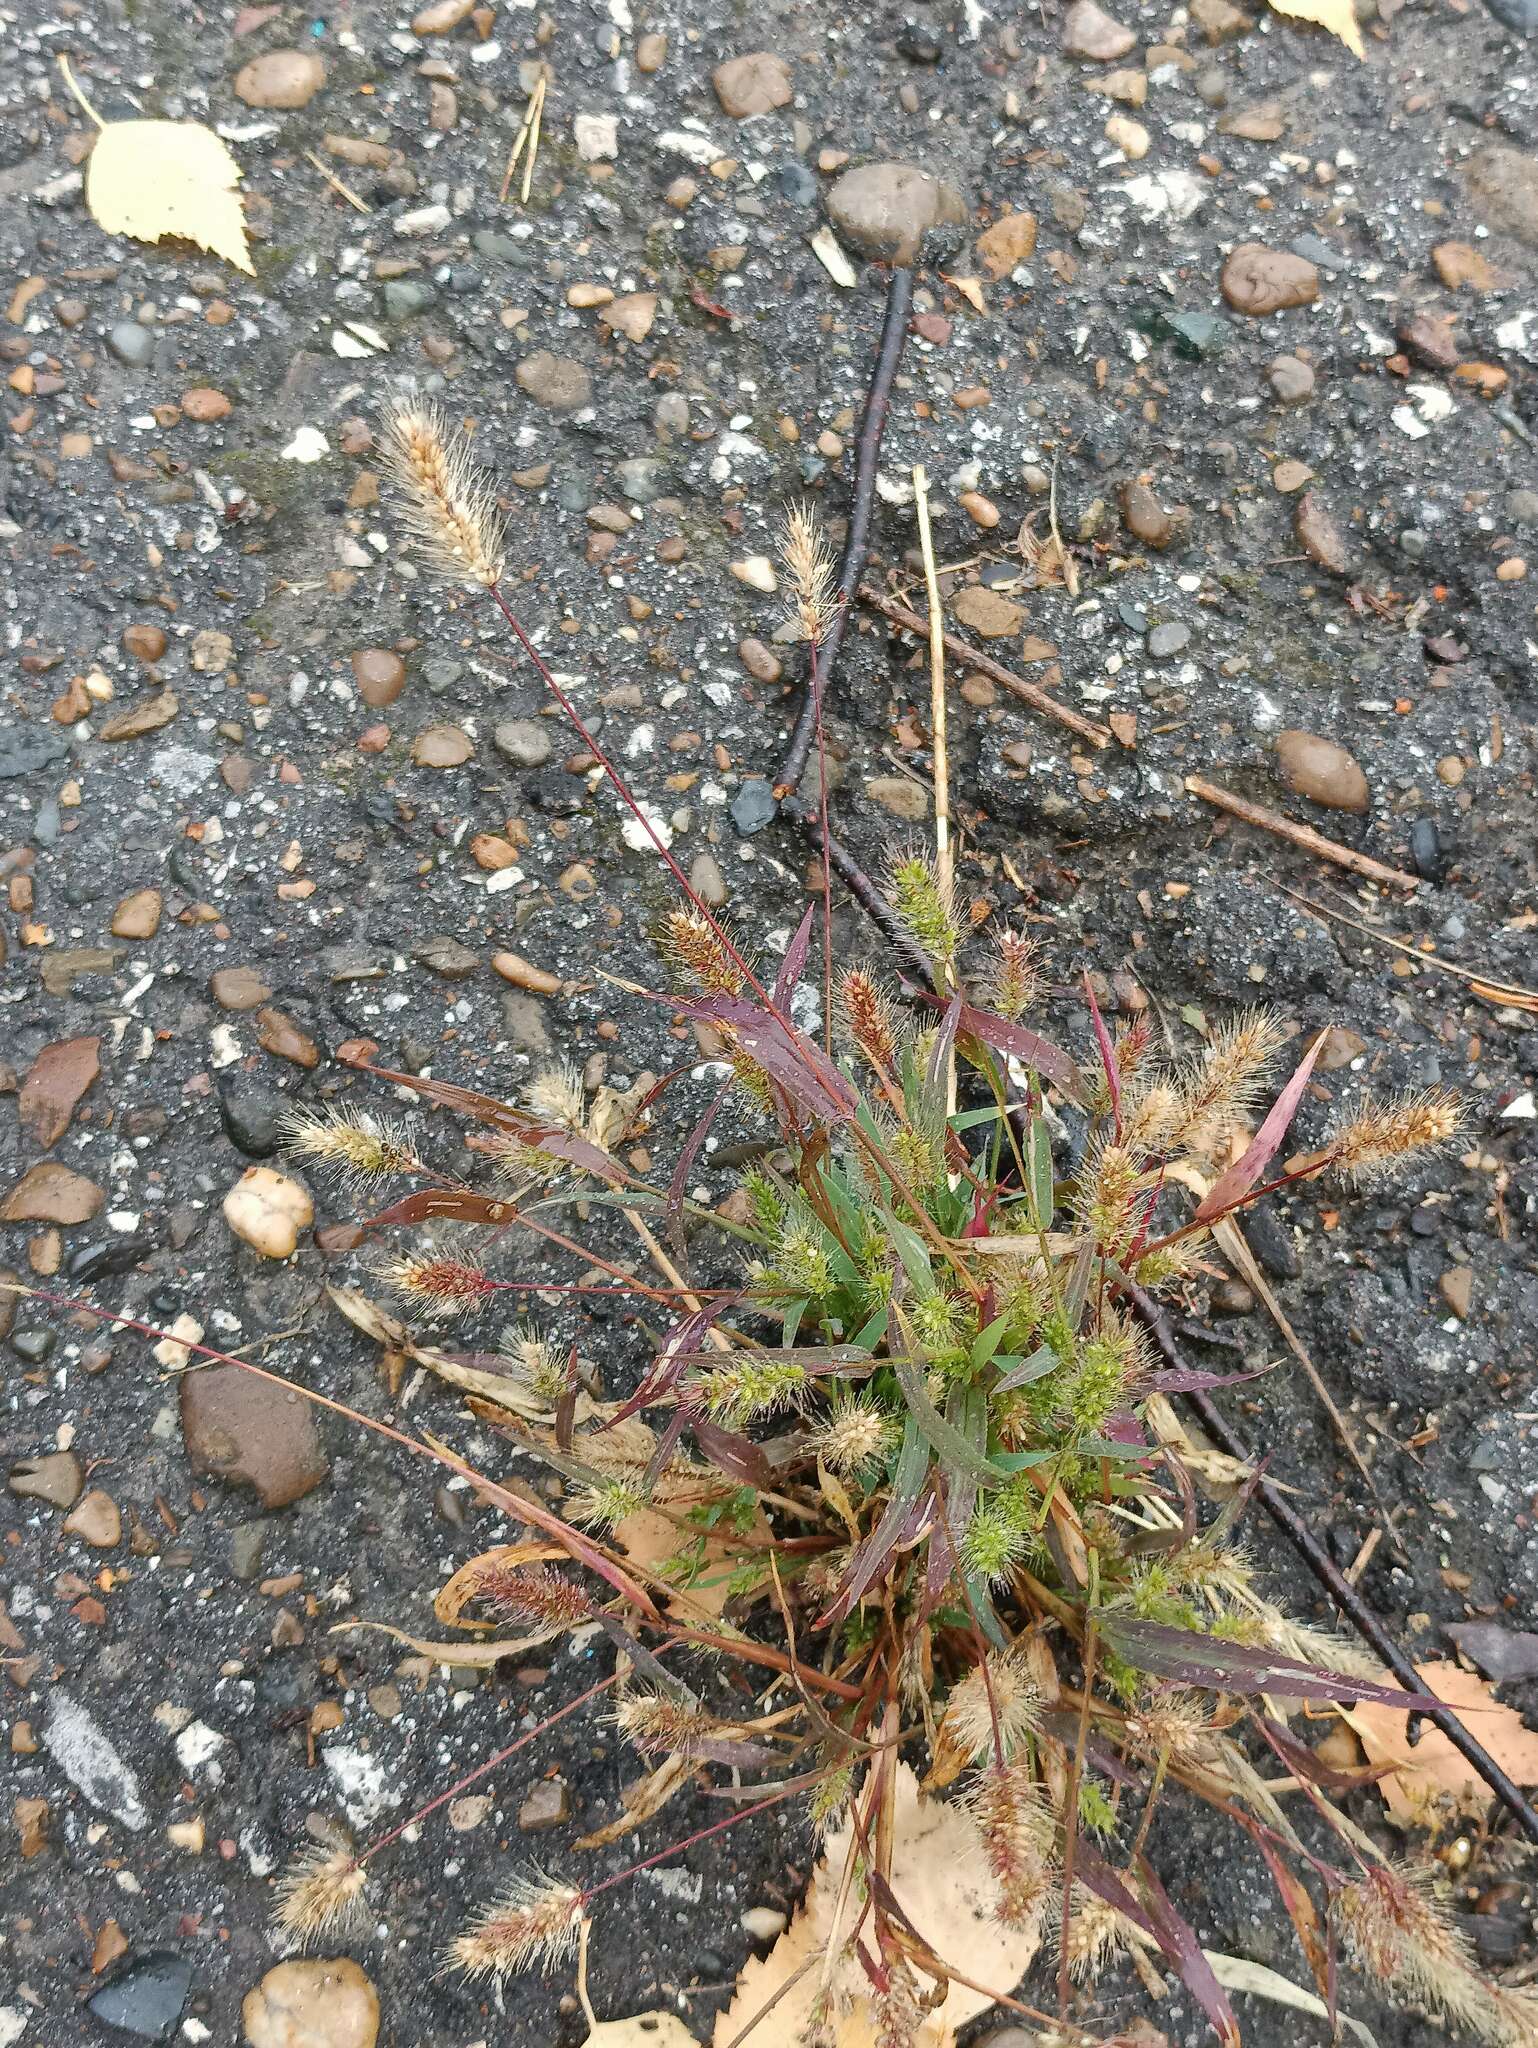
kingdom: Plantae
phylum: Tracheophyta
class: Liliopsida
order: Poales
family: Poaceae
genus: Setaria
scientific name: Setaria viridis
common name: Green bristlegrass
